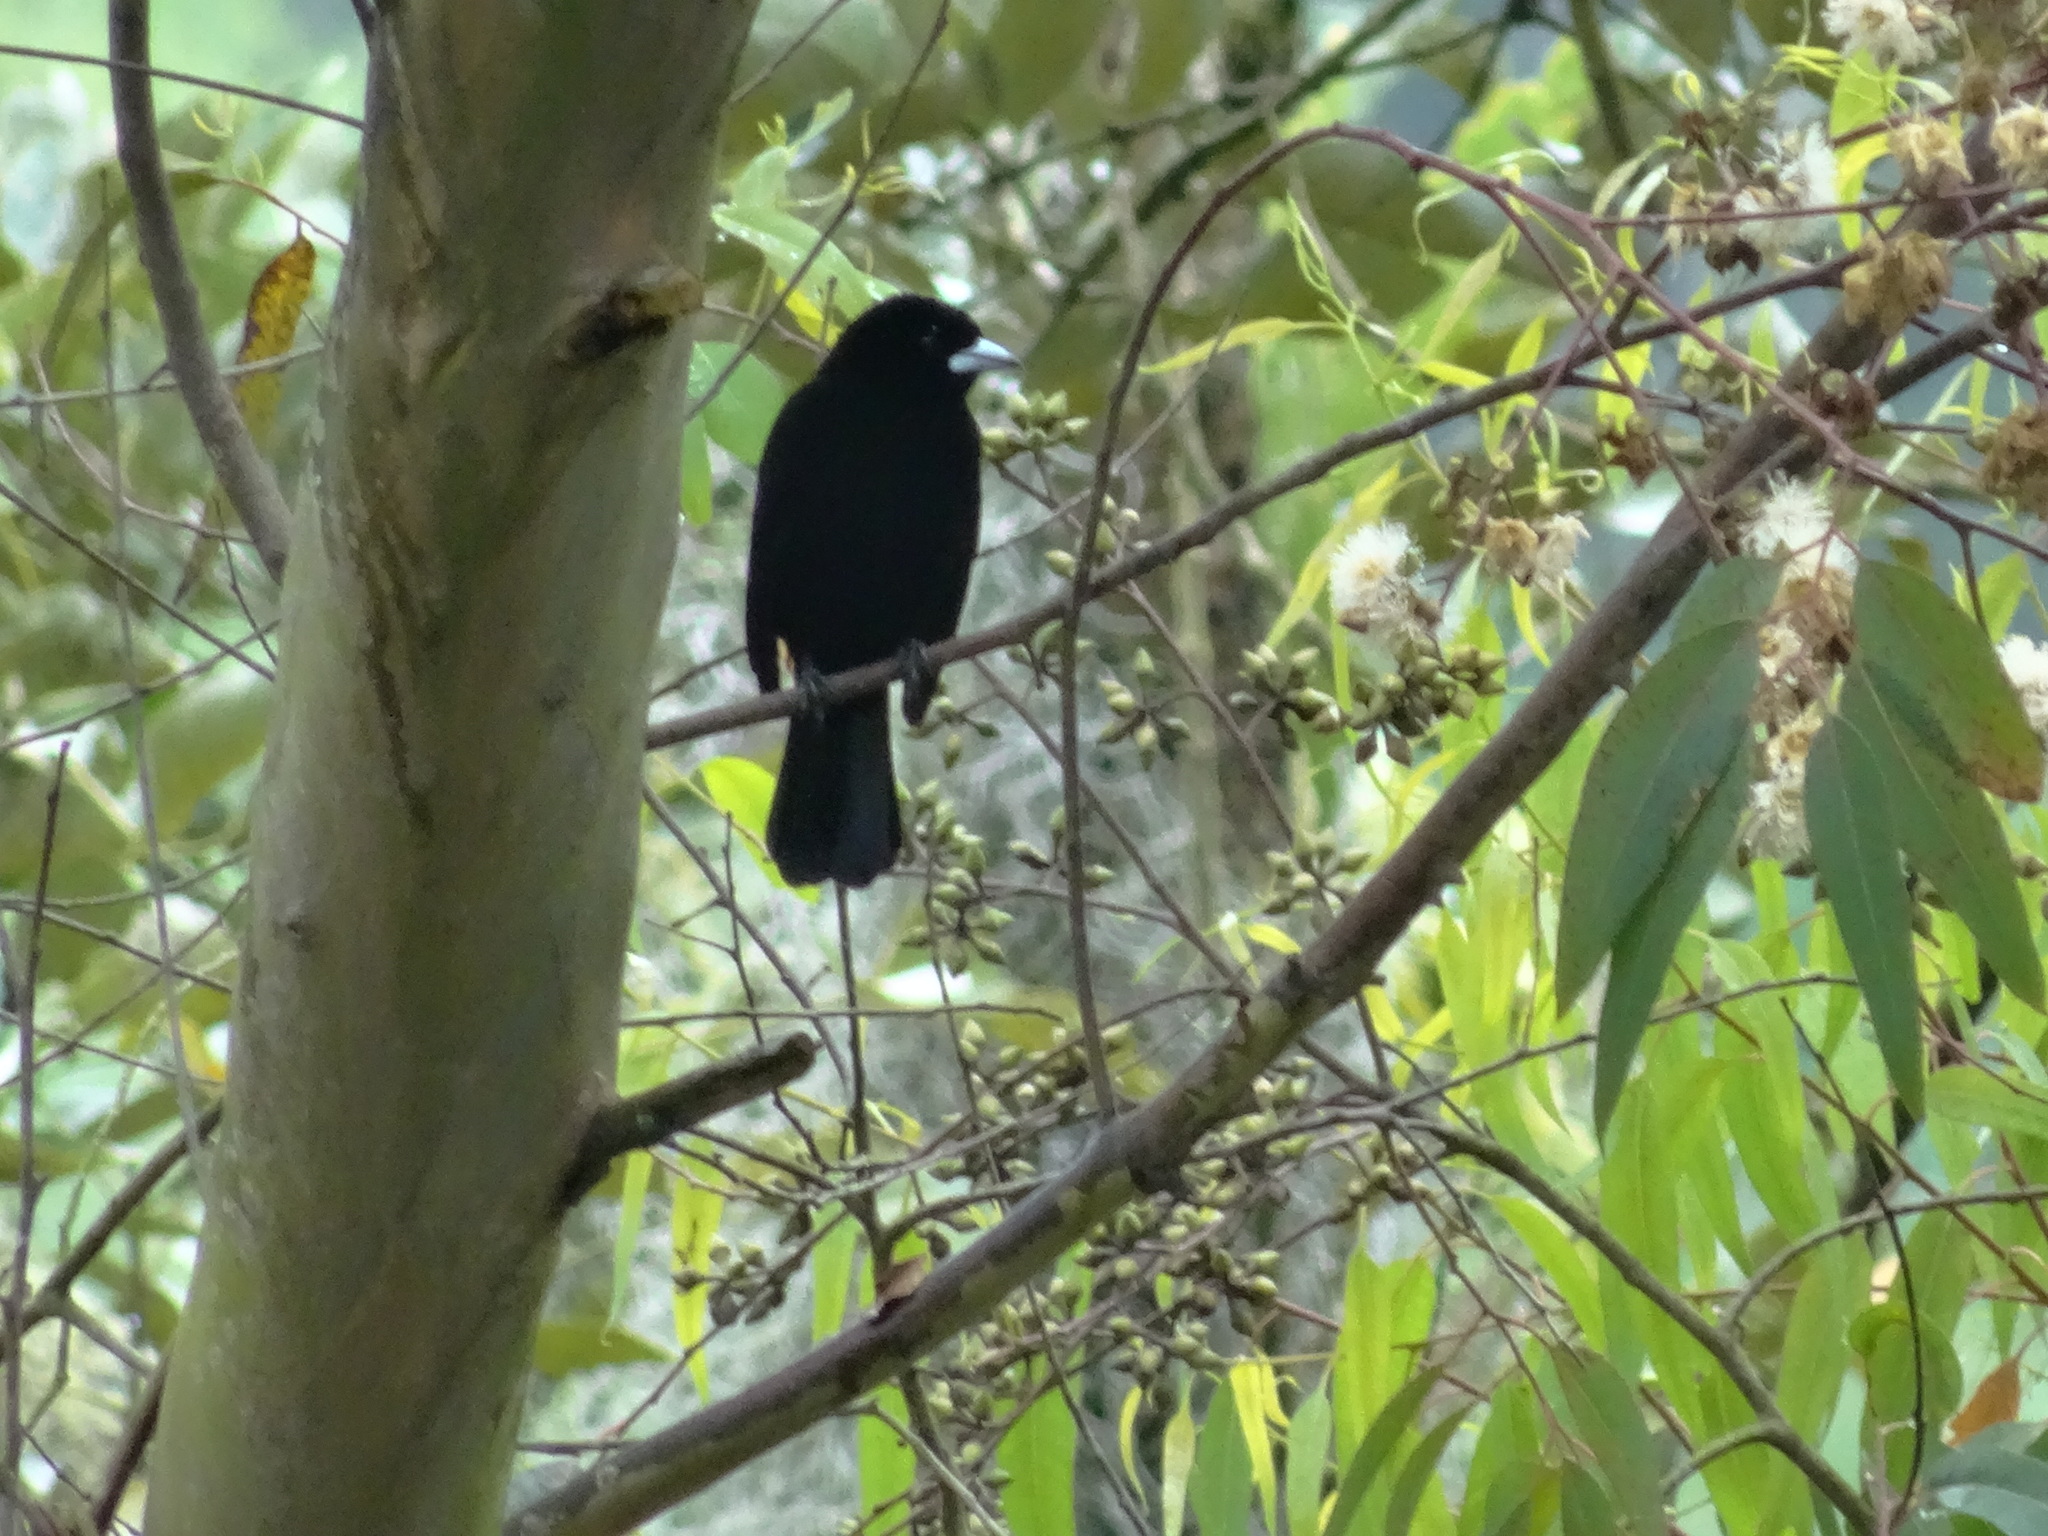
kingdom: Animalia
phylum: Chordata
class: Aves
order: Passeriformes
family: Thraupidae
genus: Ramphocelus
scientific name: Ramphocelus flammigerus
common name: Flame-rumped tanager
